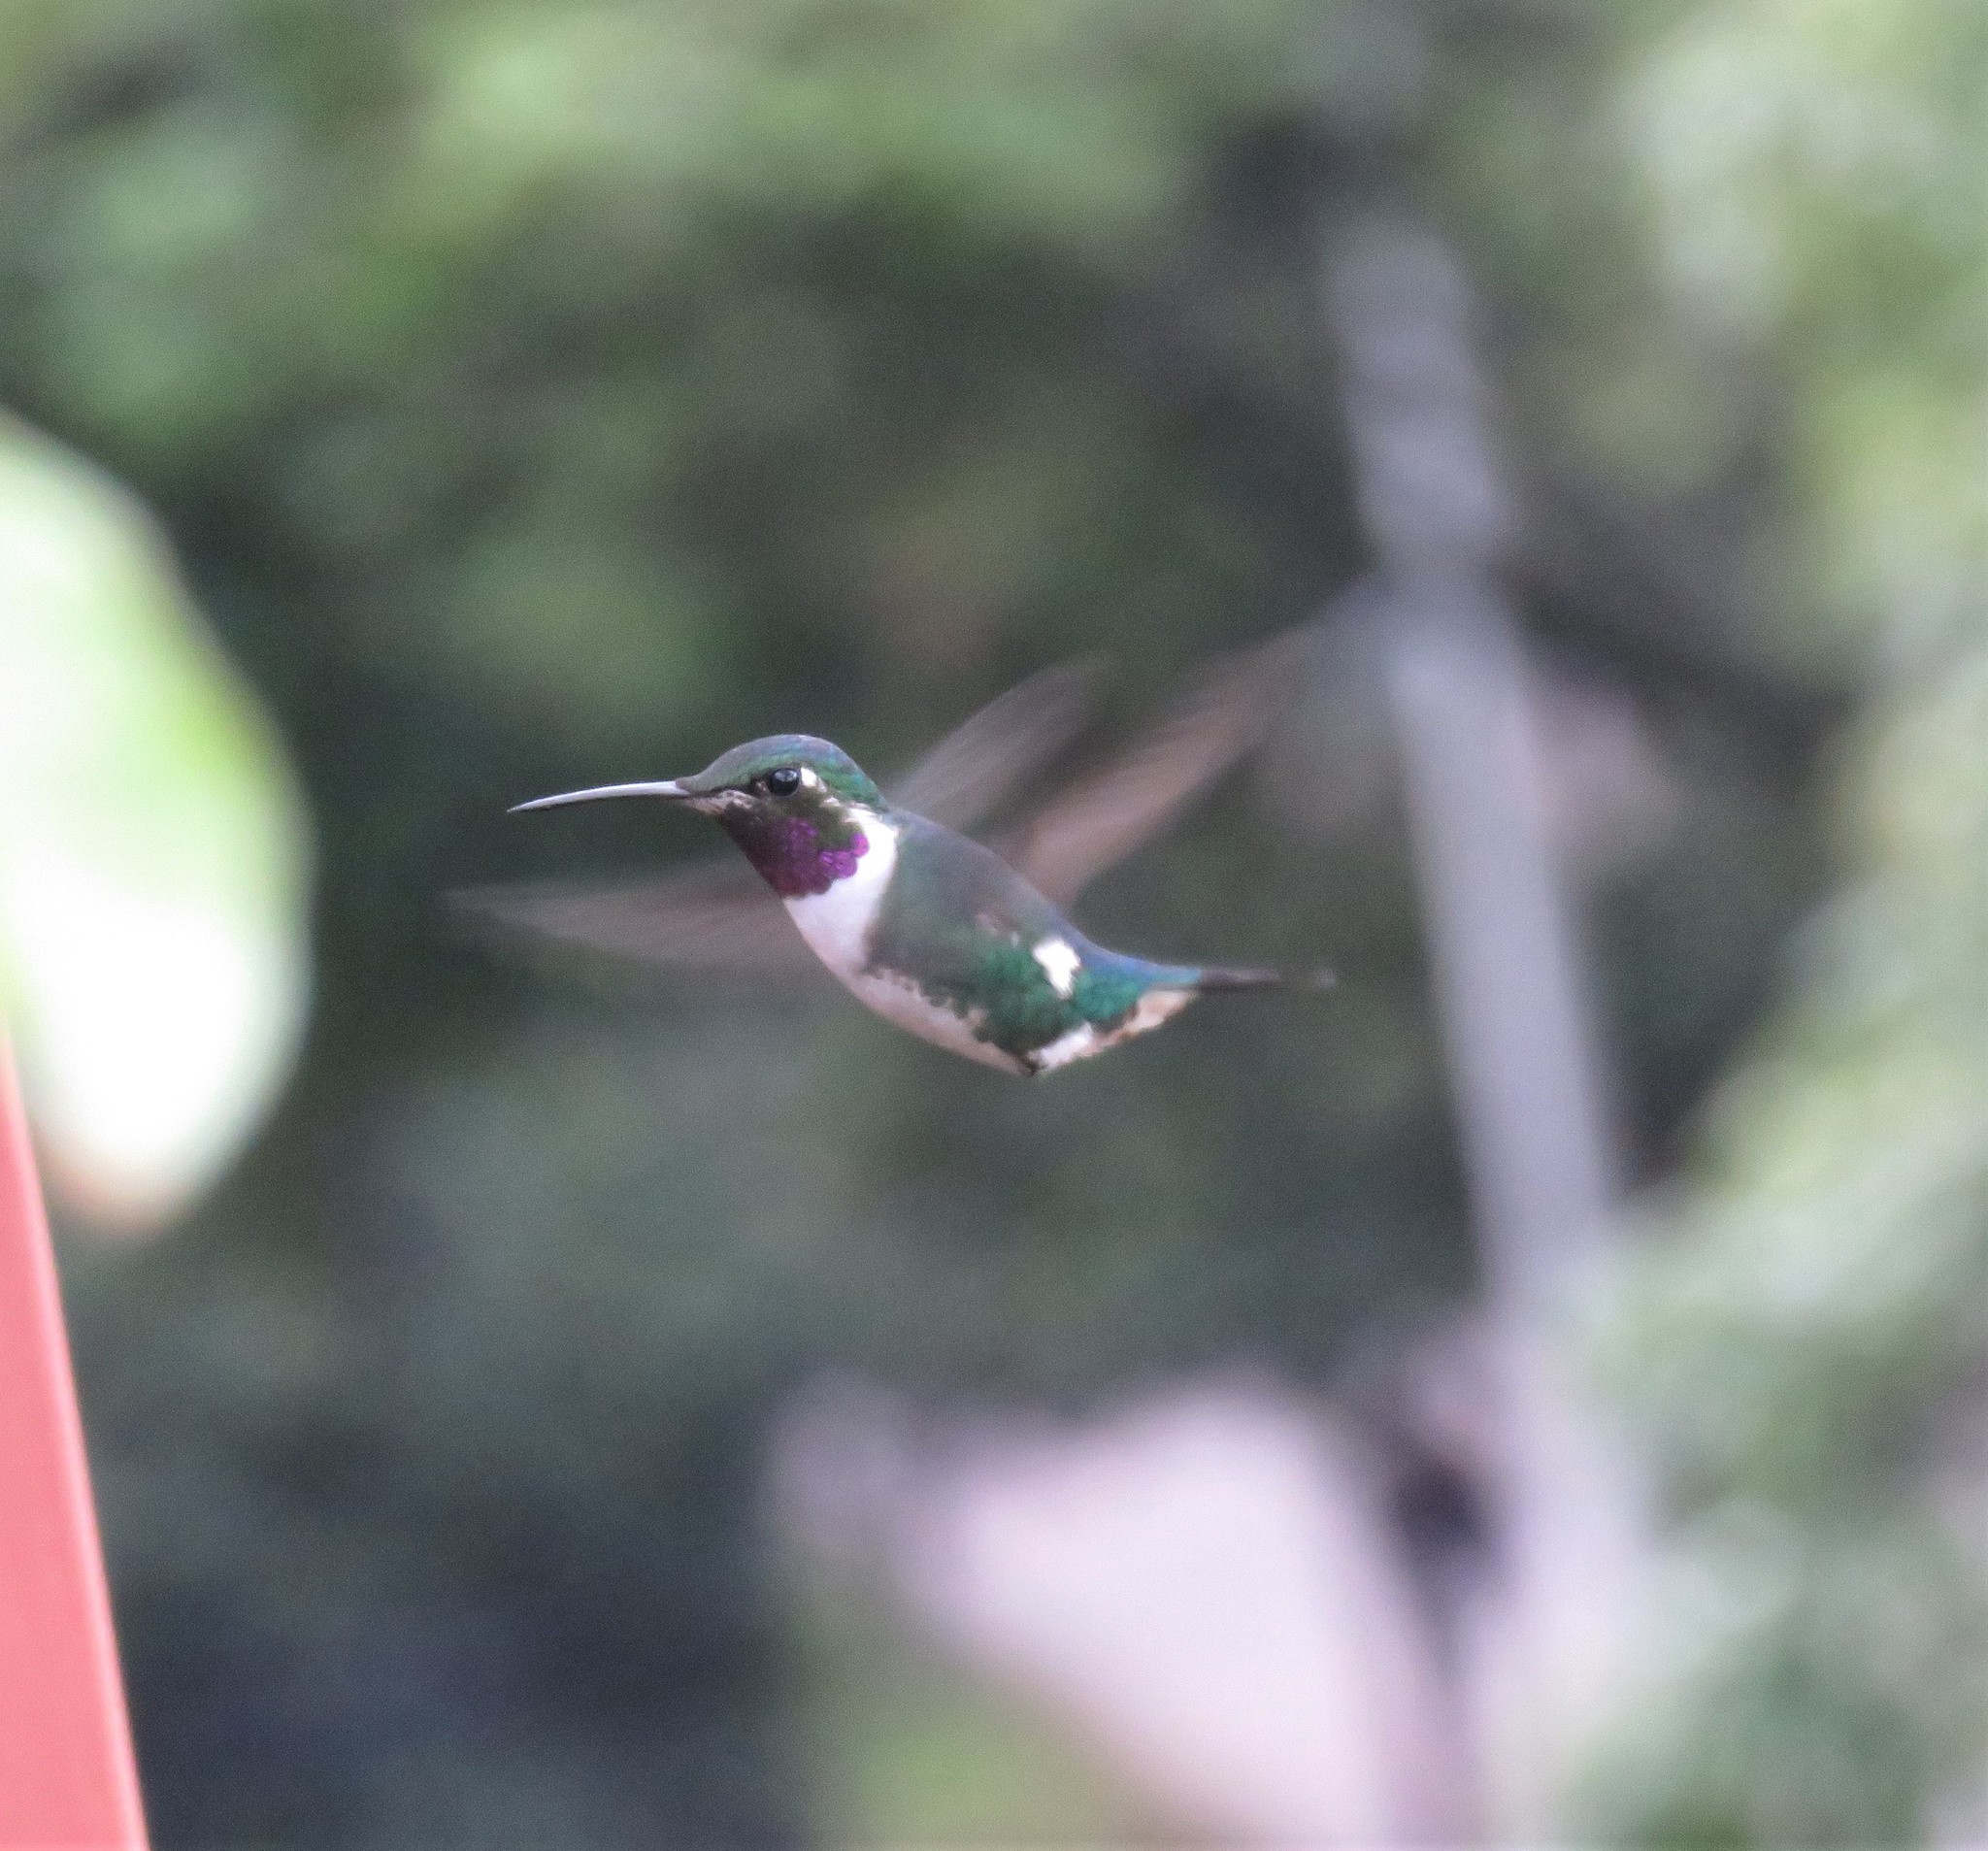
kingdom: Animalia
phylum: Chordata
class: Aves
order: Apodiformes
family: Trochilidae
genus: Chaetocercus
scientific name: Chaetocercus mulsant
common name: White-bellied woodstar
